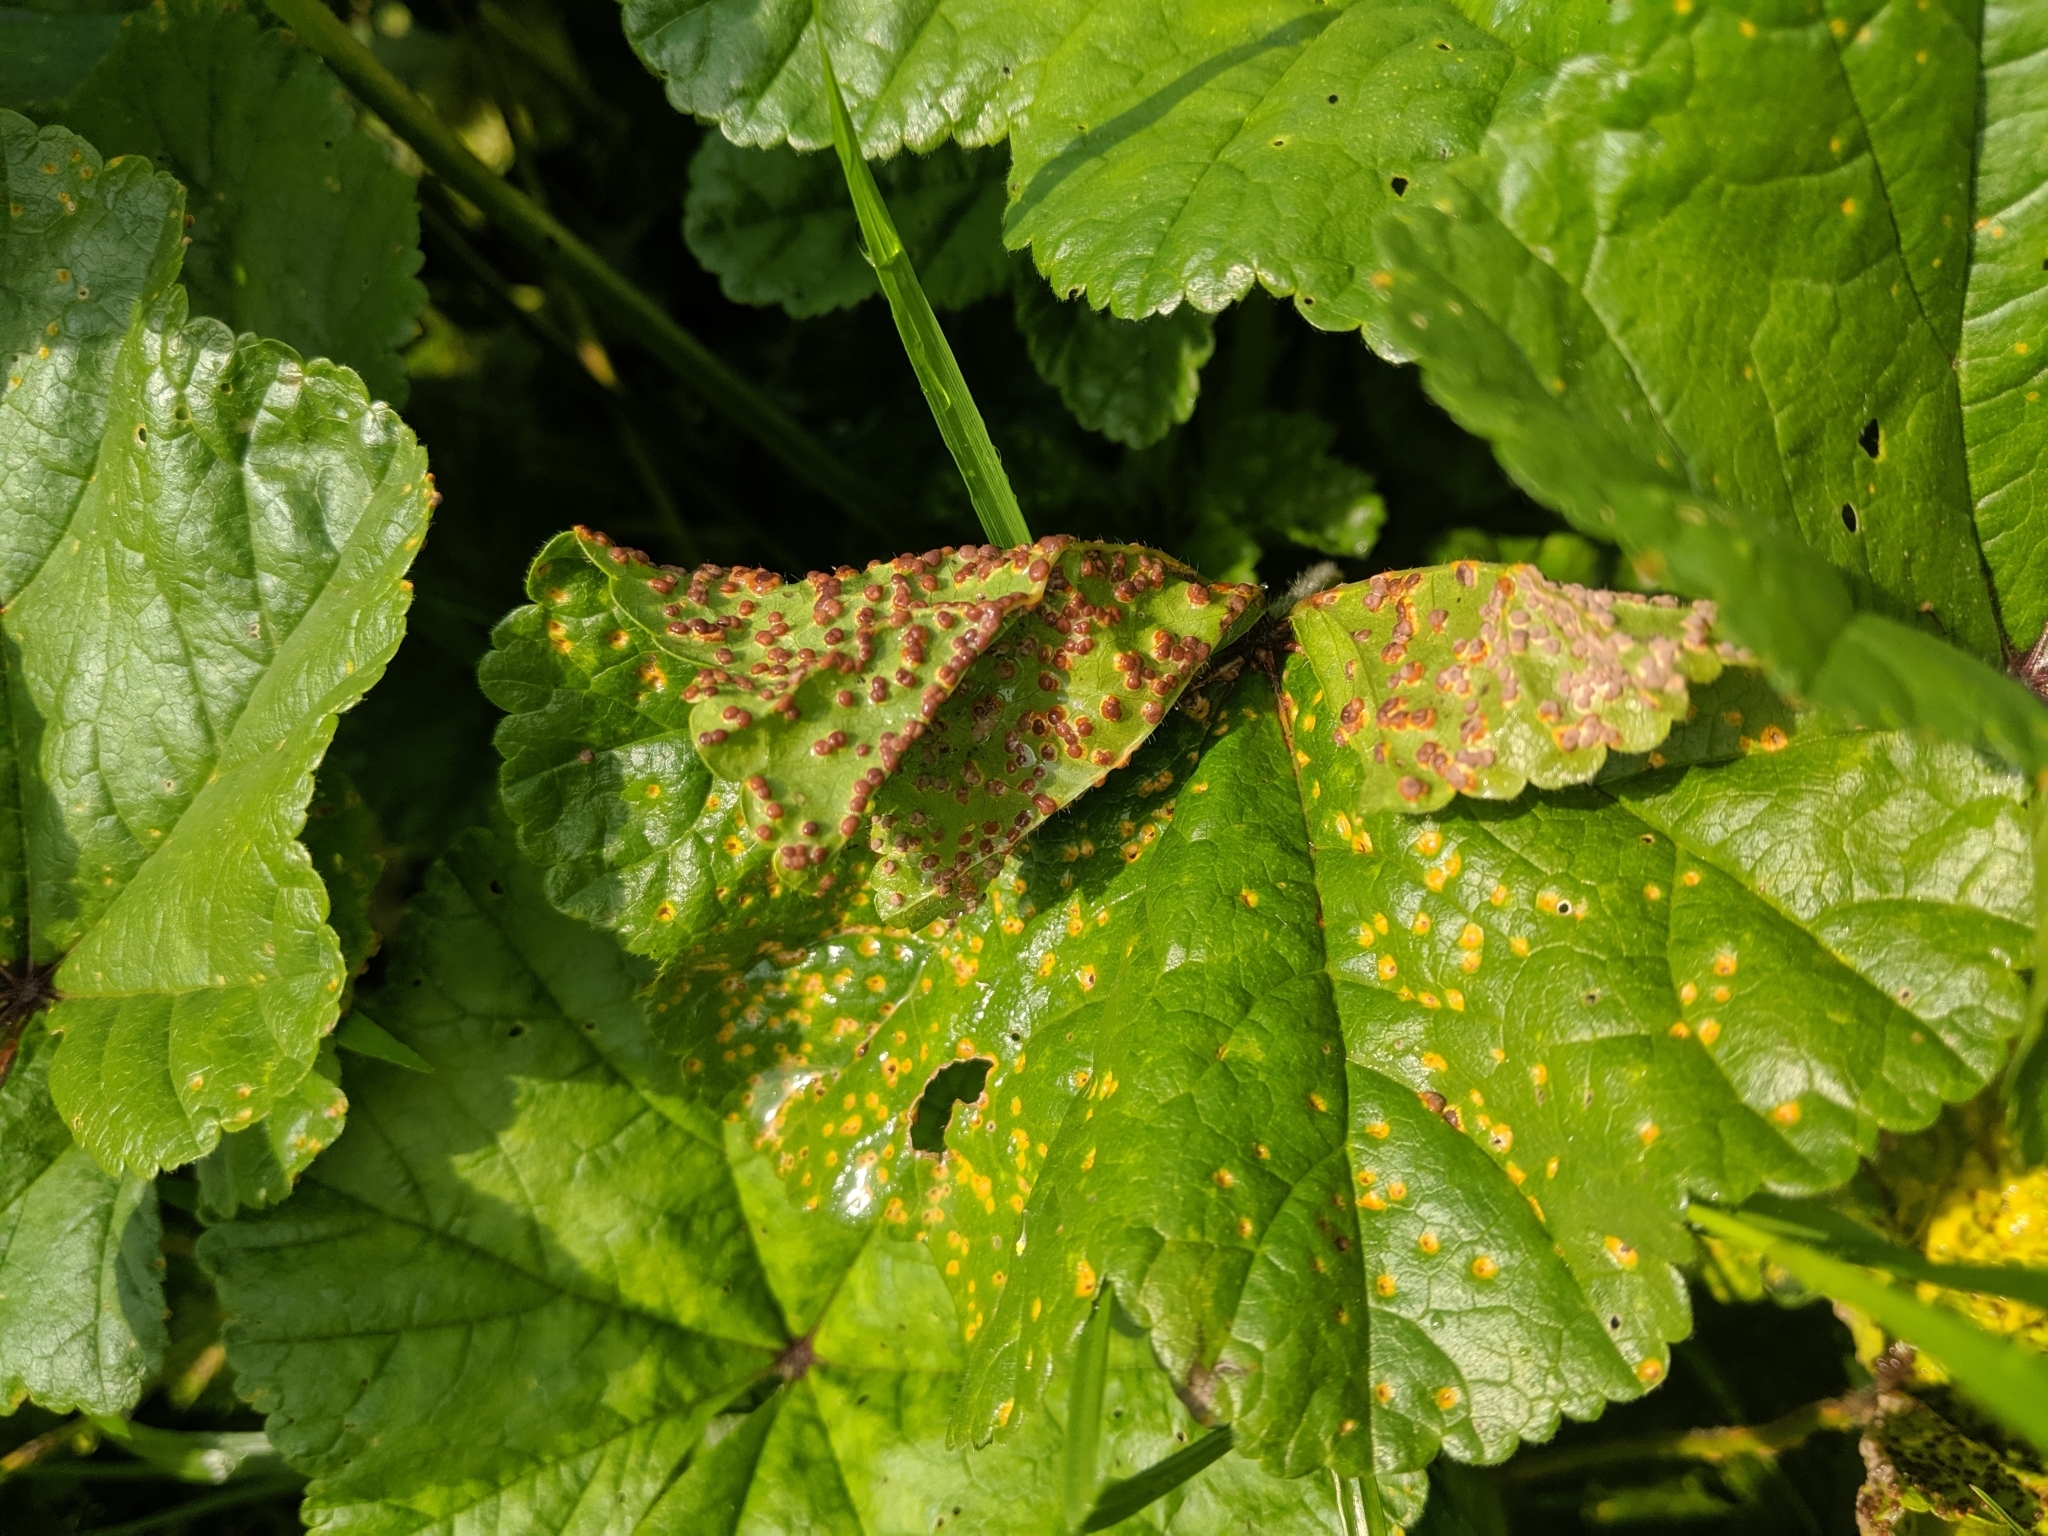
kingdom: Fungi
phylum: Basidiomycota
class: Pucciniomycetes
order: Pucciniales
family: Pucciniaceae
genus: Puccinia
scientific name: Puccinia malvacearum
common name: Hollyhock rust
